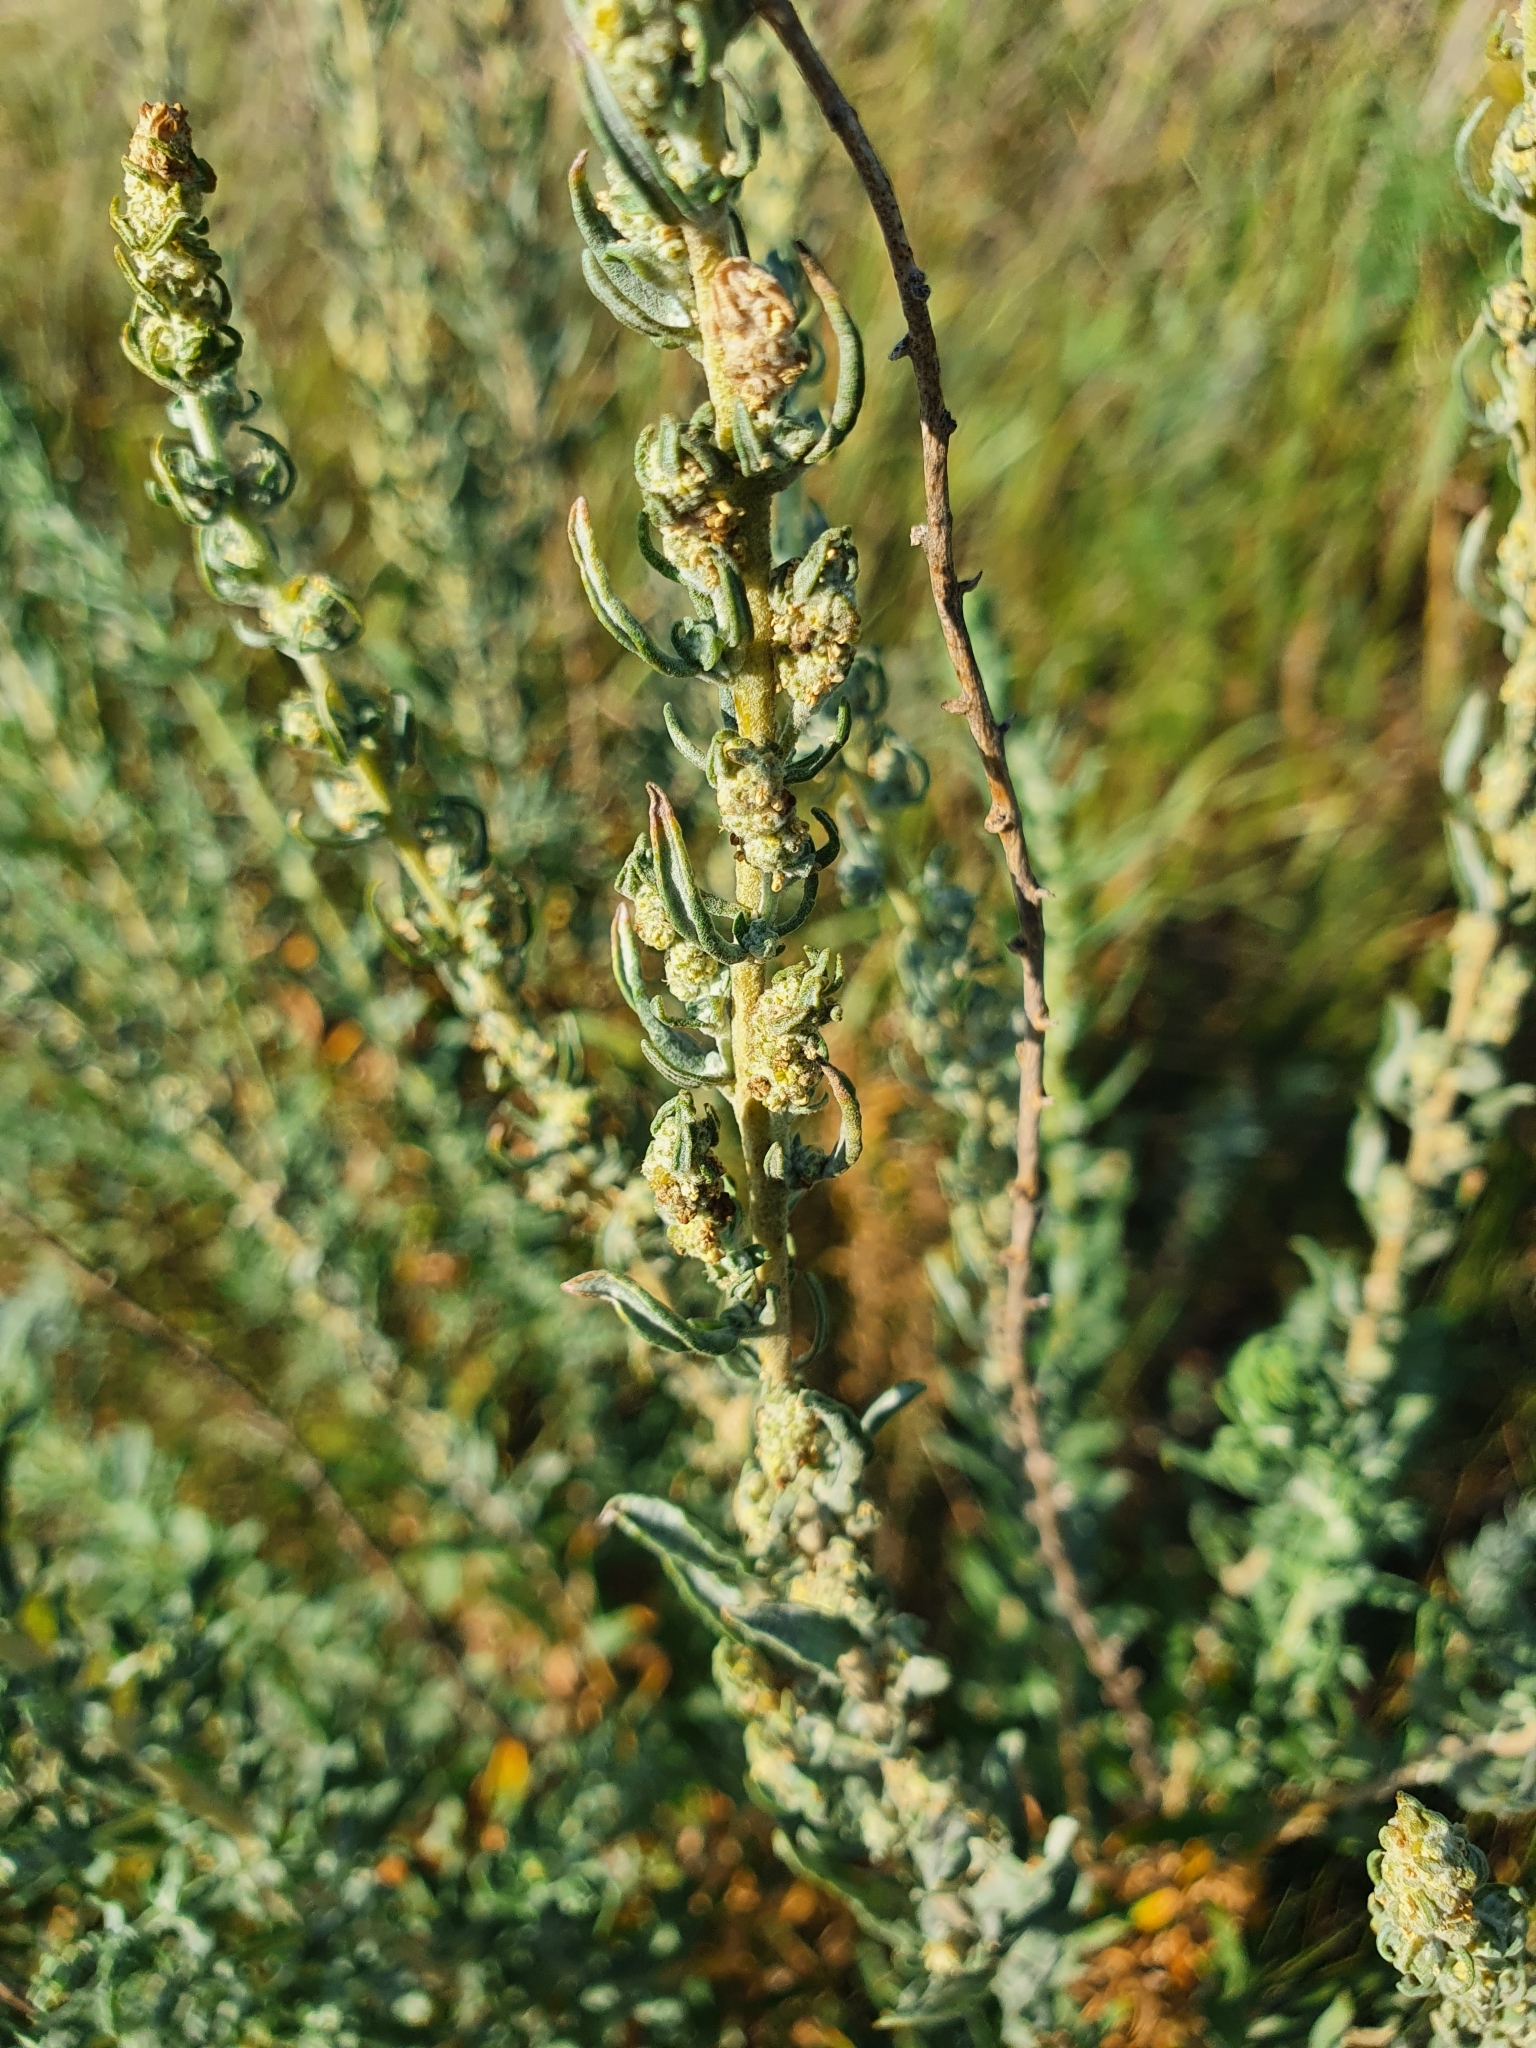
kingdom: Plantae
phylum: Tracheophyta
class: Magnoliopsida
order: Caryophyllales
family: Amaranthaceae
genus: Krascheninnikovia
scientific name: Krascheninnikovia ceratoides
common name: Pamirian winterfat
